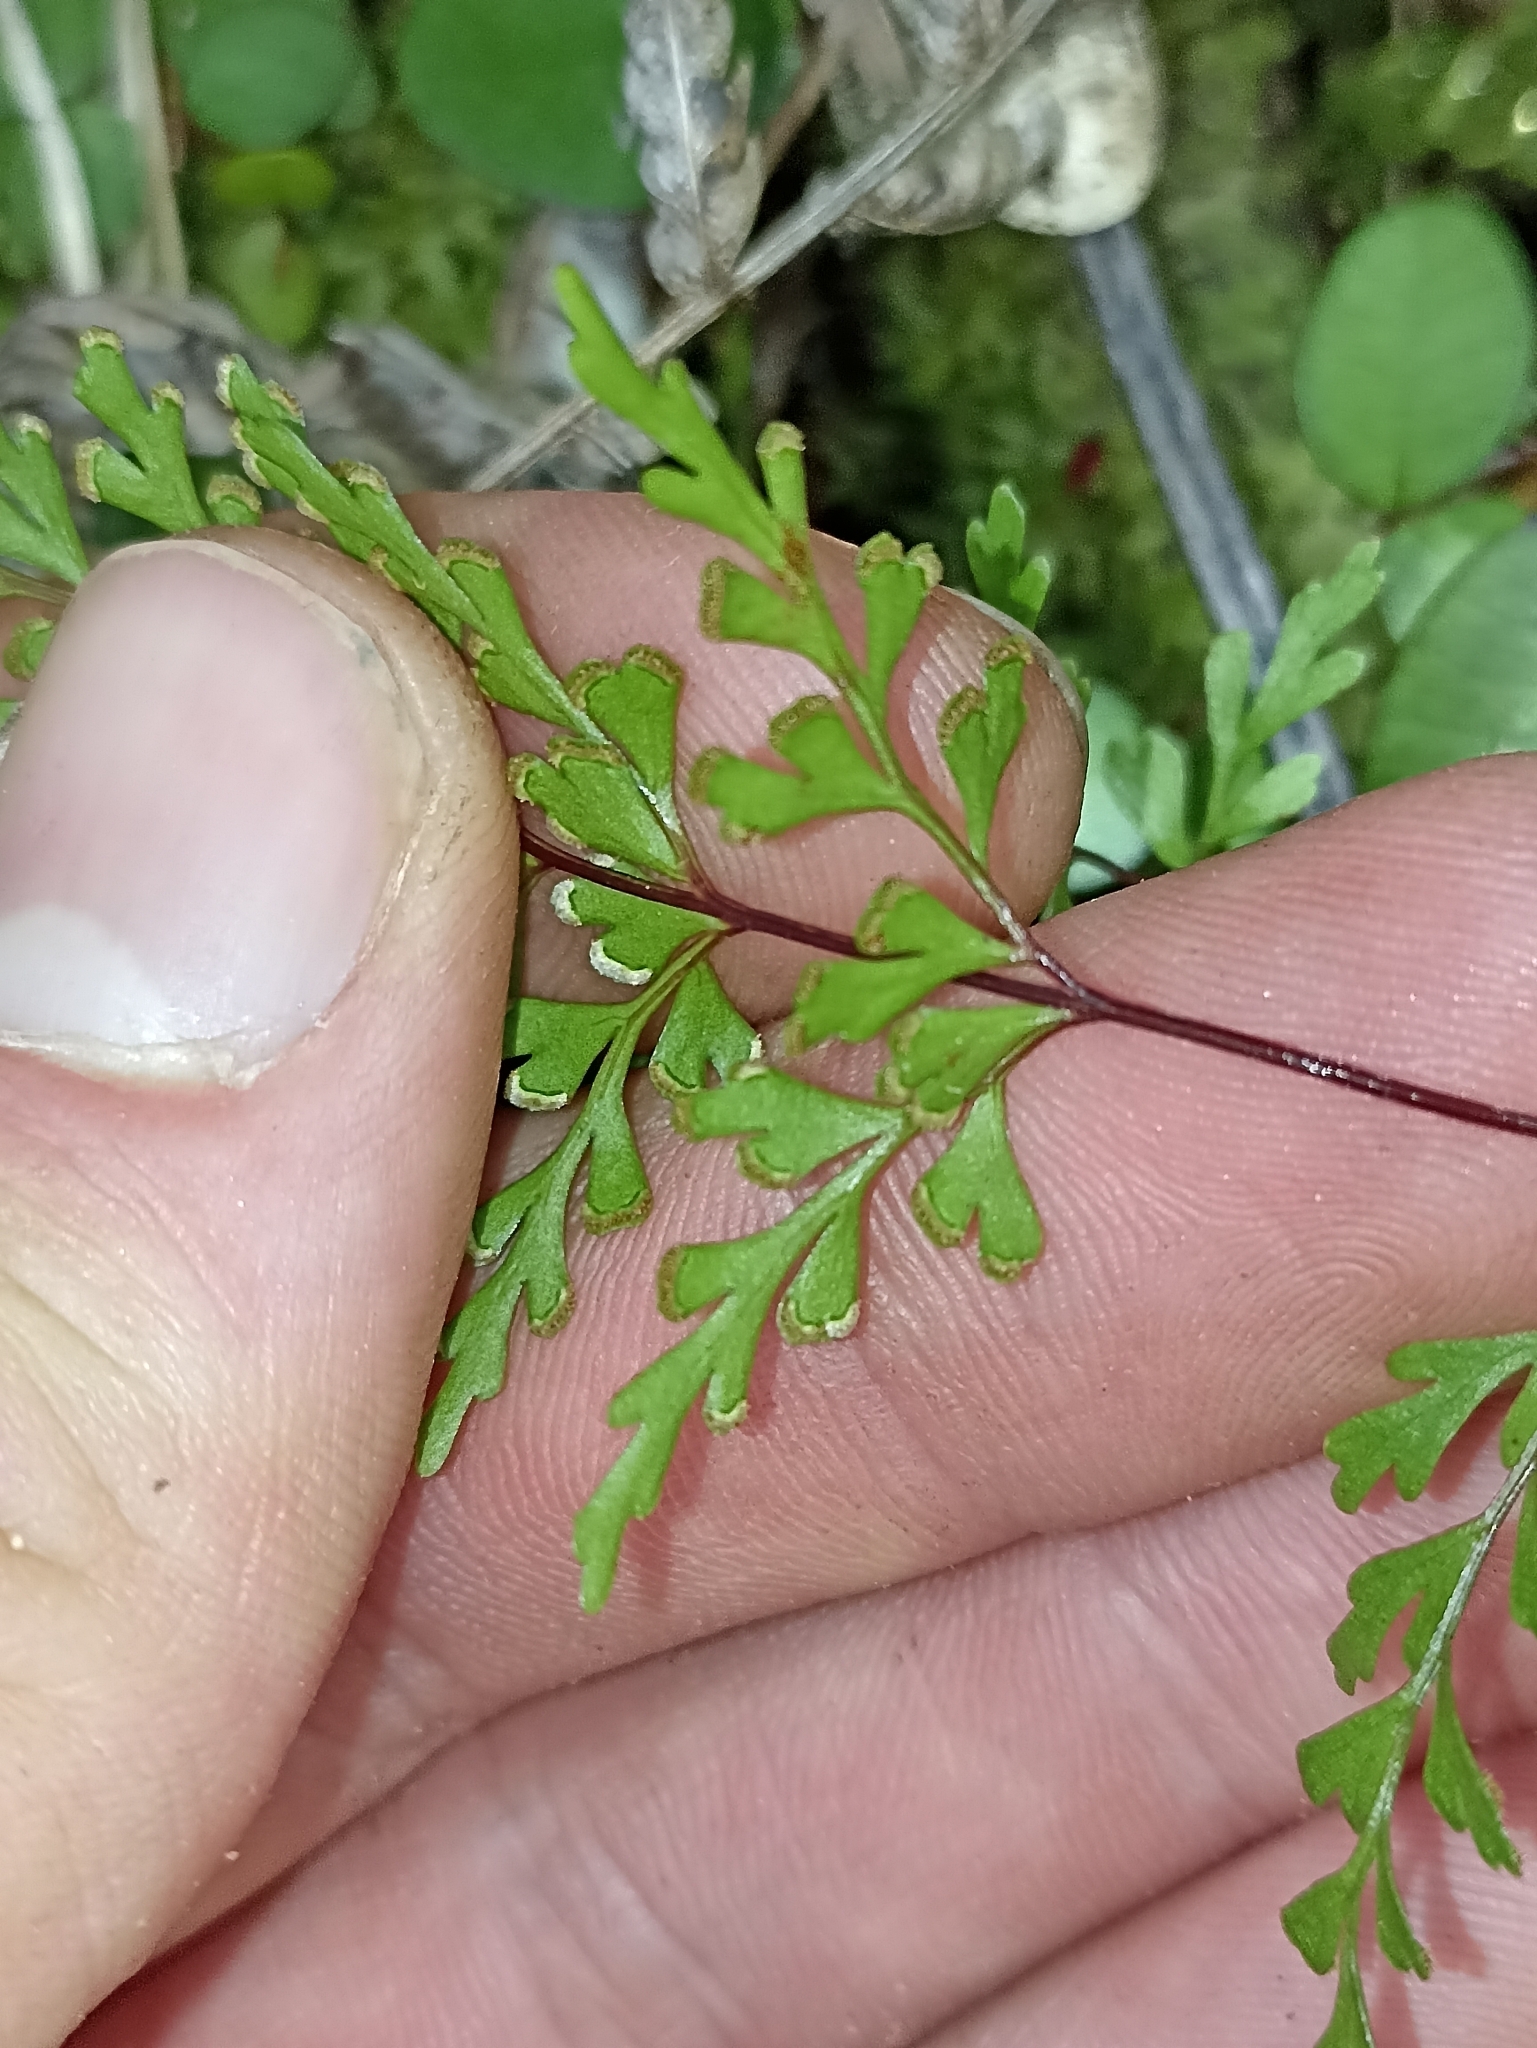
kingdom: Plantae
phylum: Tracheophyta
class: Polypodiopsida
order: Polypodiales
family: Lindsaeaceae
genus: Lindsaea
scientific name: Lindsaea trichomanoides
